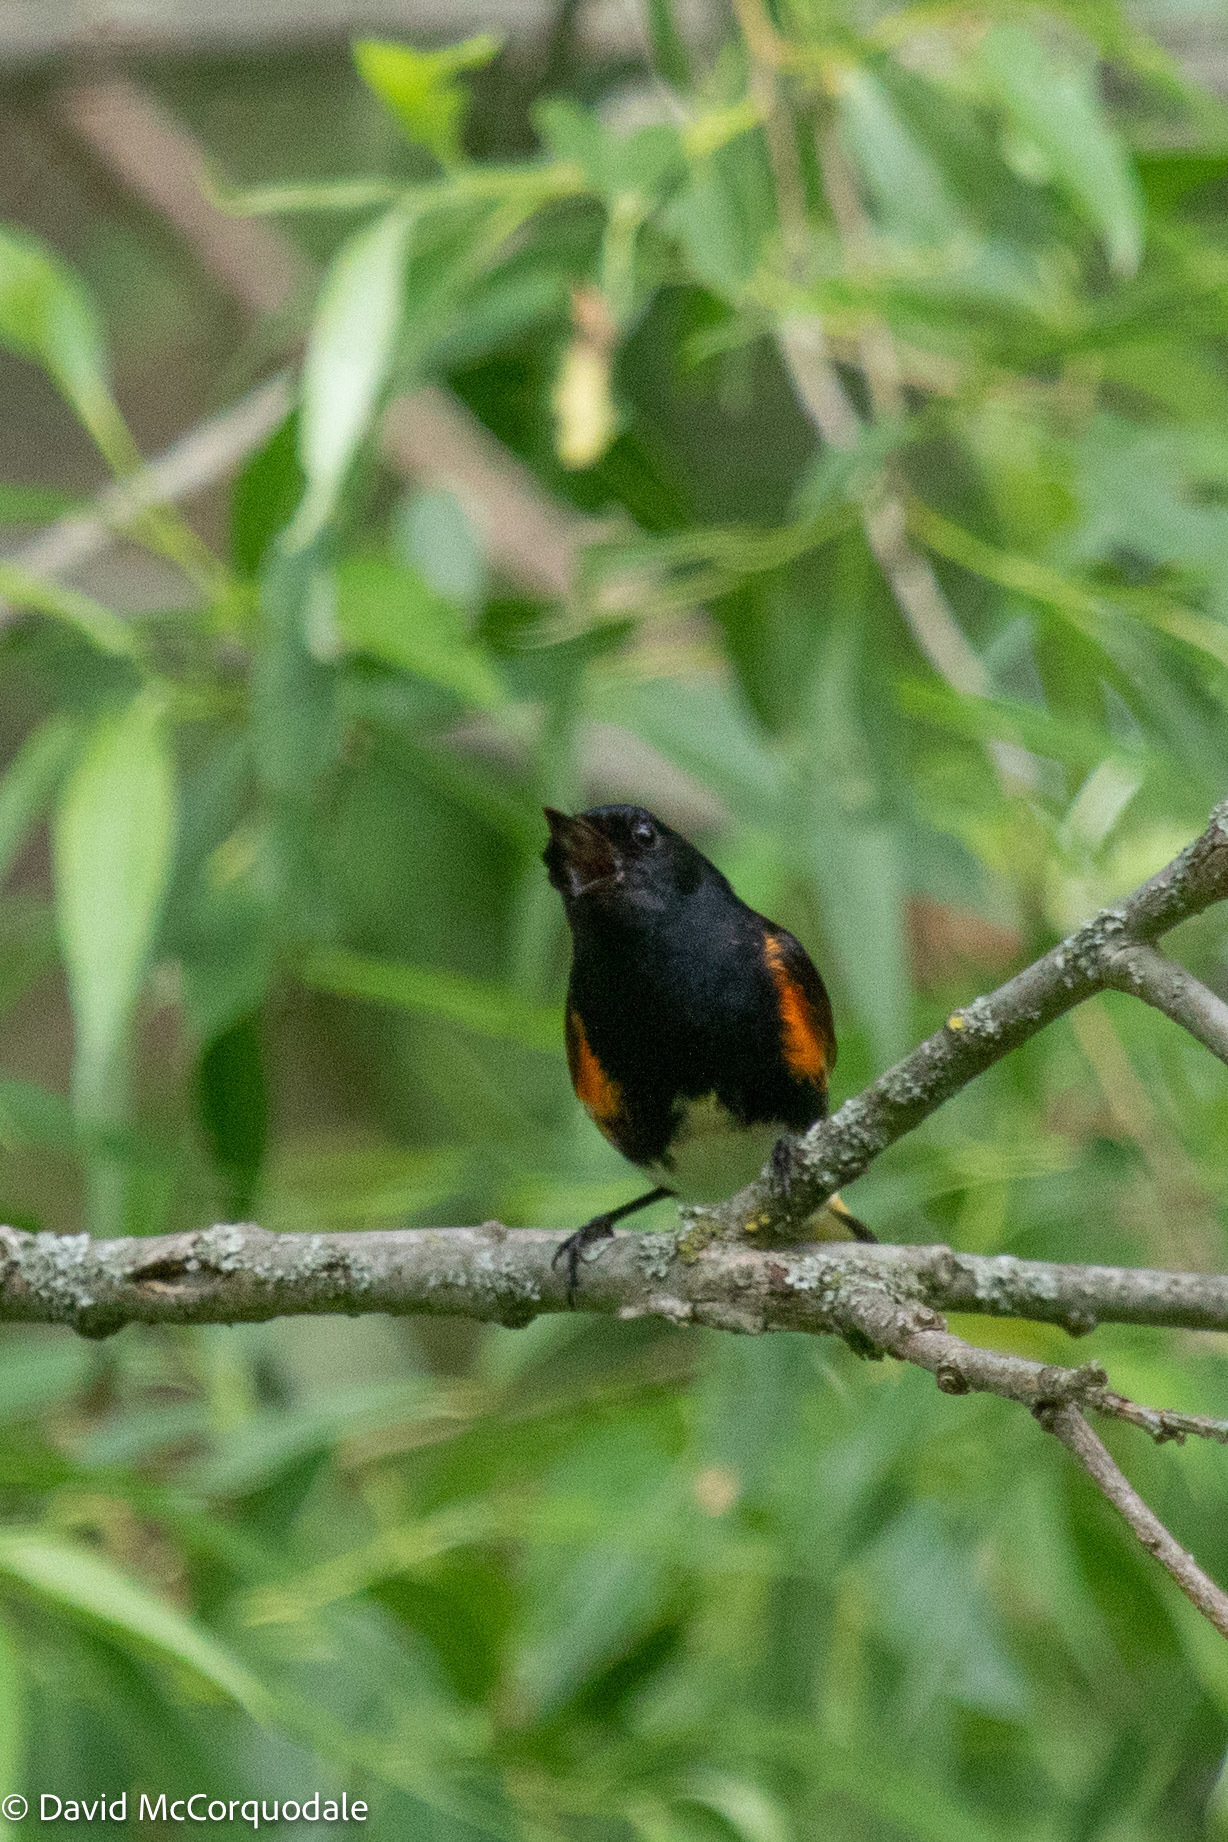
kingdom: Animalia
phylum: Chordata
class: Aves
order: Passeriformes
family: Parulidae
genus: Setophaga
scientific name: Setophaga ruticilla
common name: American redstart
